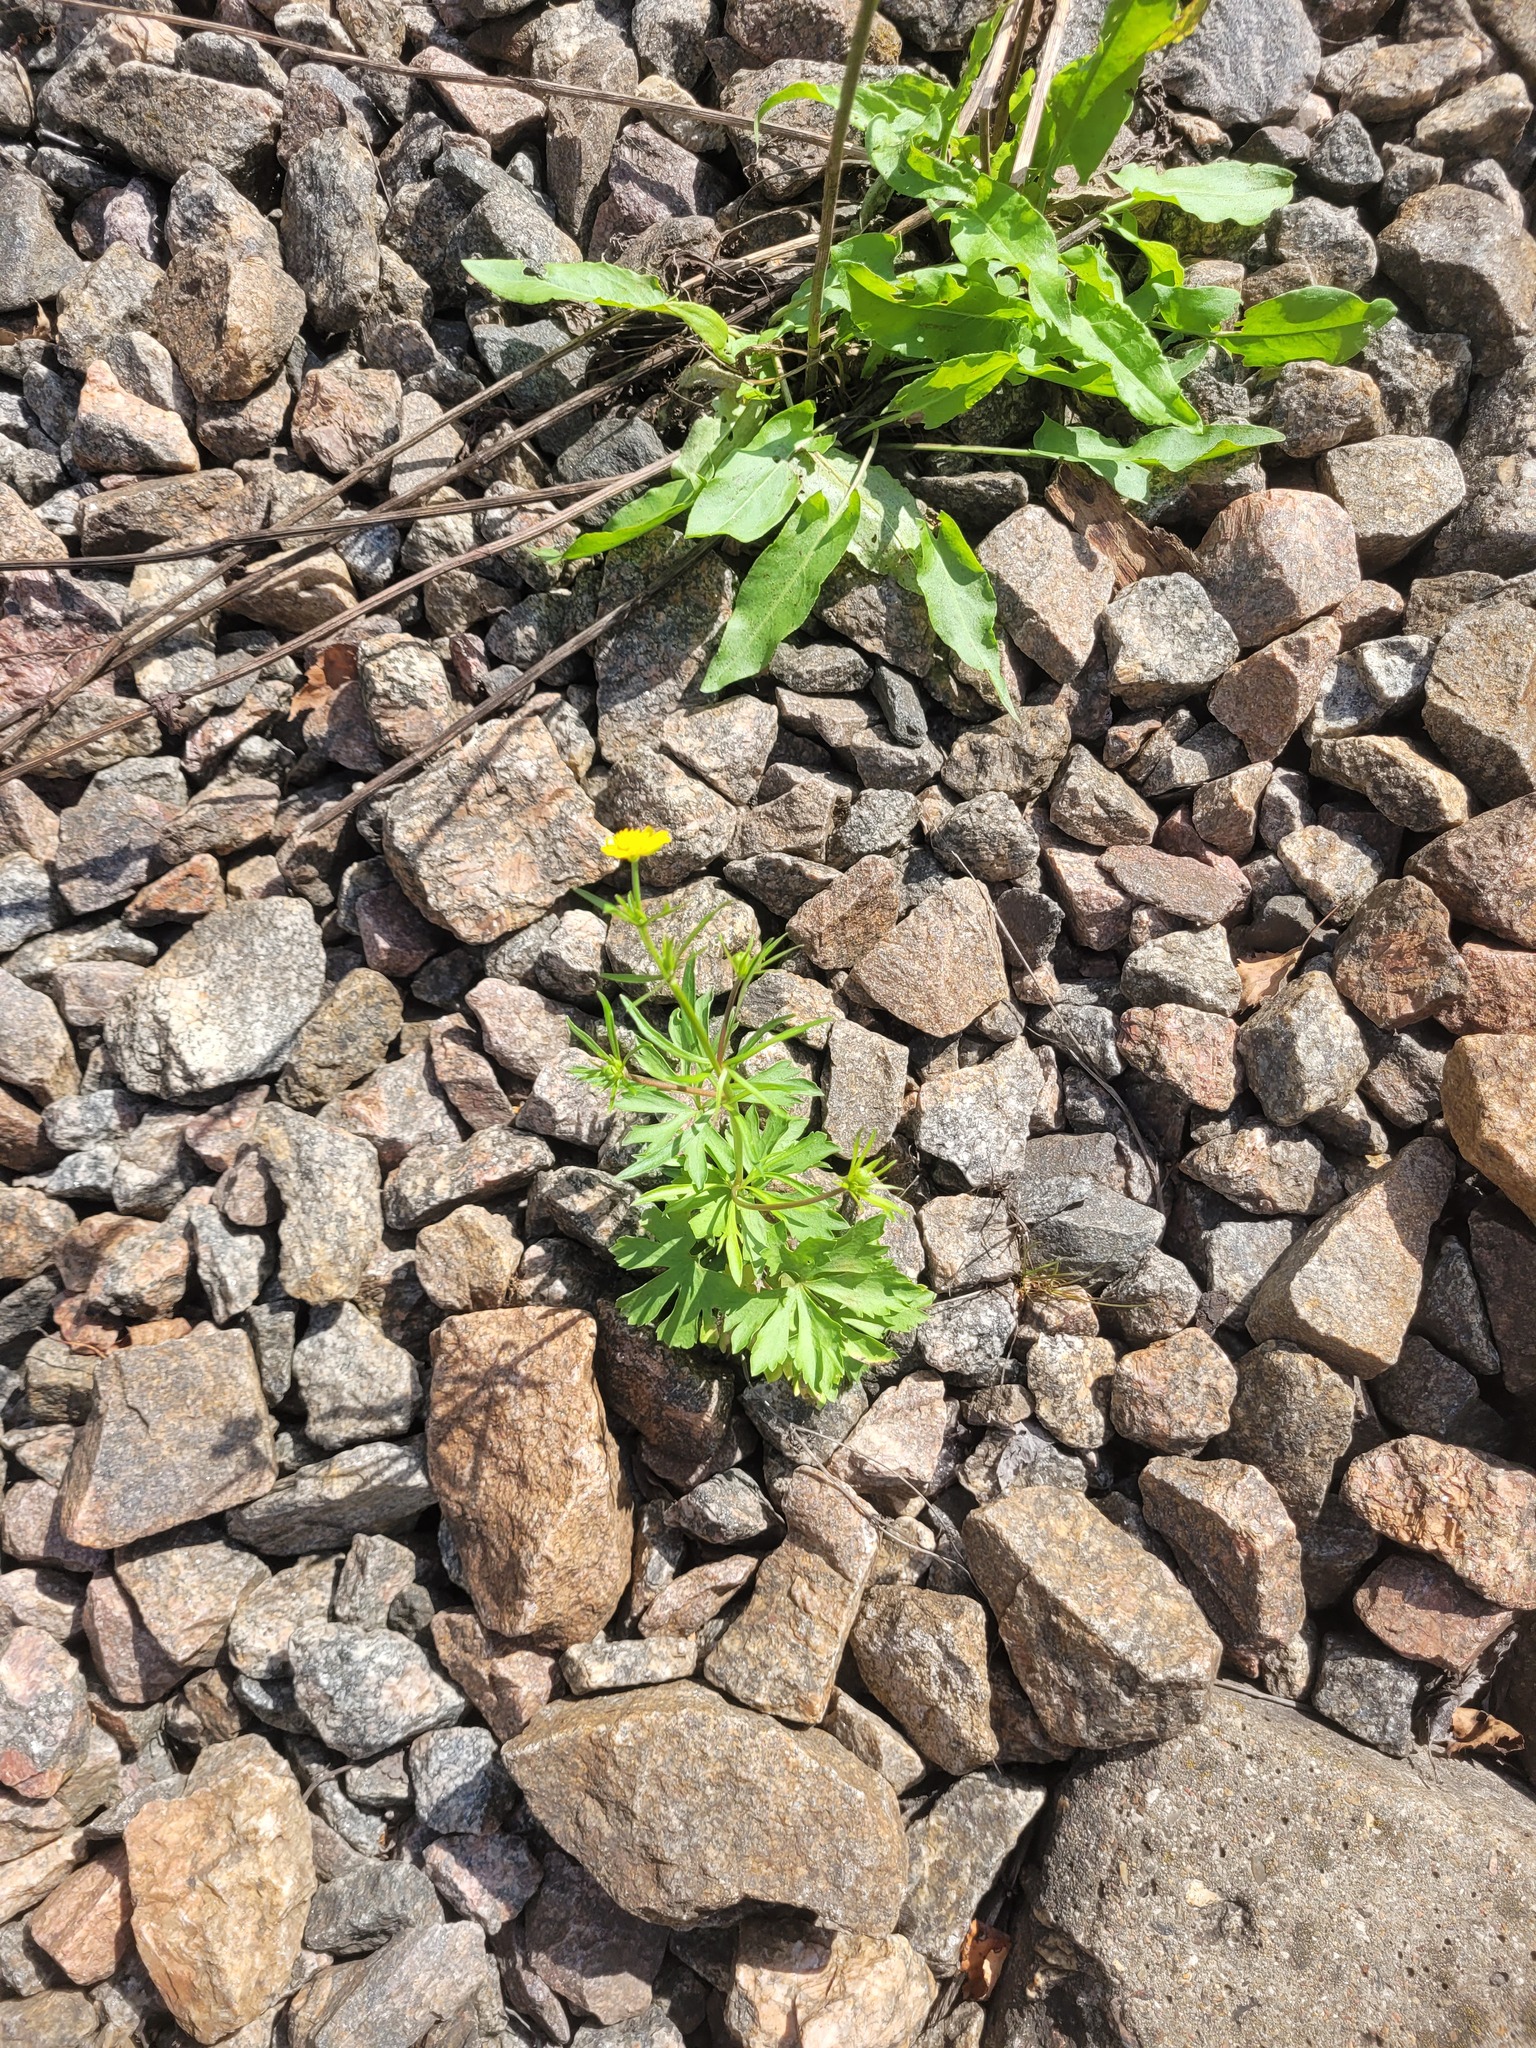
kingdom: Plantae
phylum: Tracheophyta
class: Magnoliopsida
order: Ranunculales
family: Ranunculaceae
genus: Ranunculus
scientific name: Ranunculus auricomus
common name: Goldilocks buttercup
